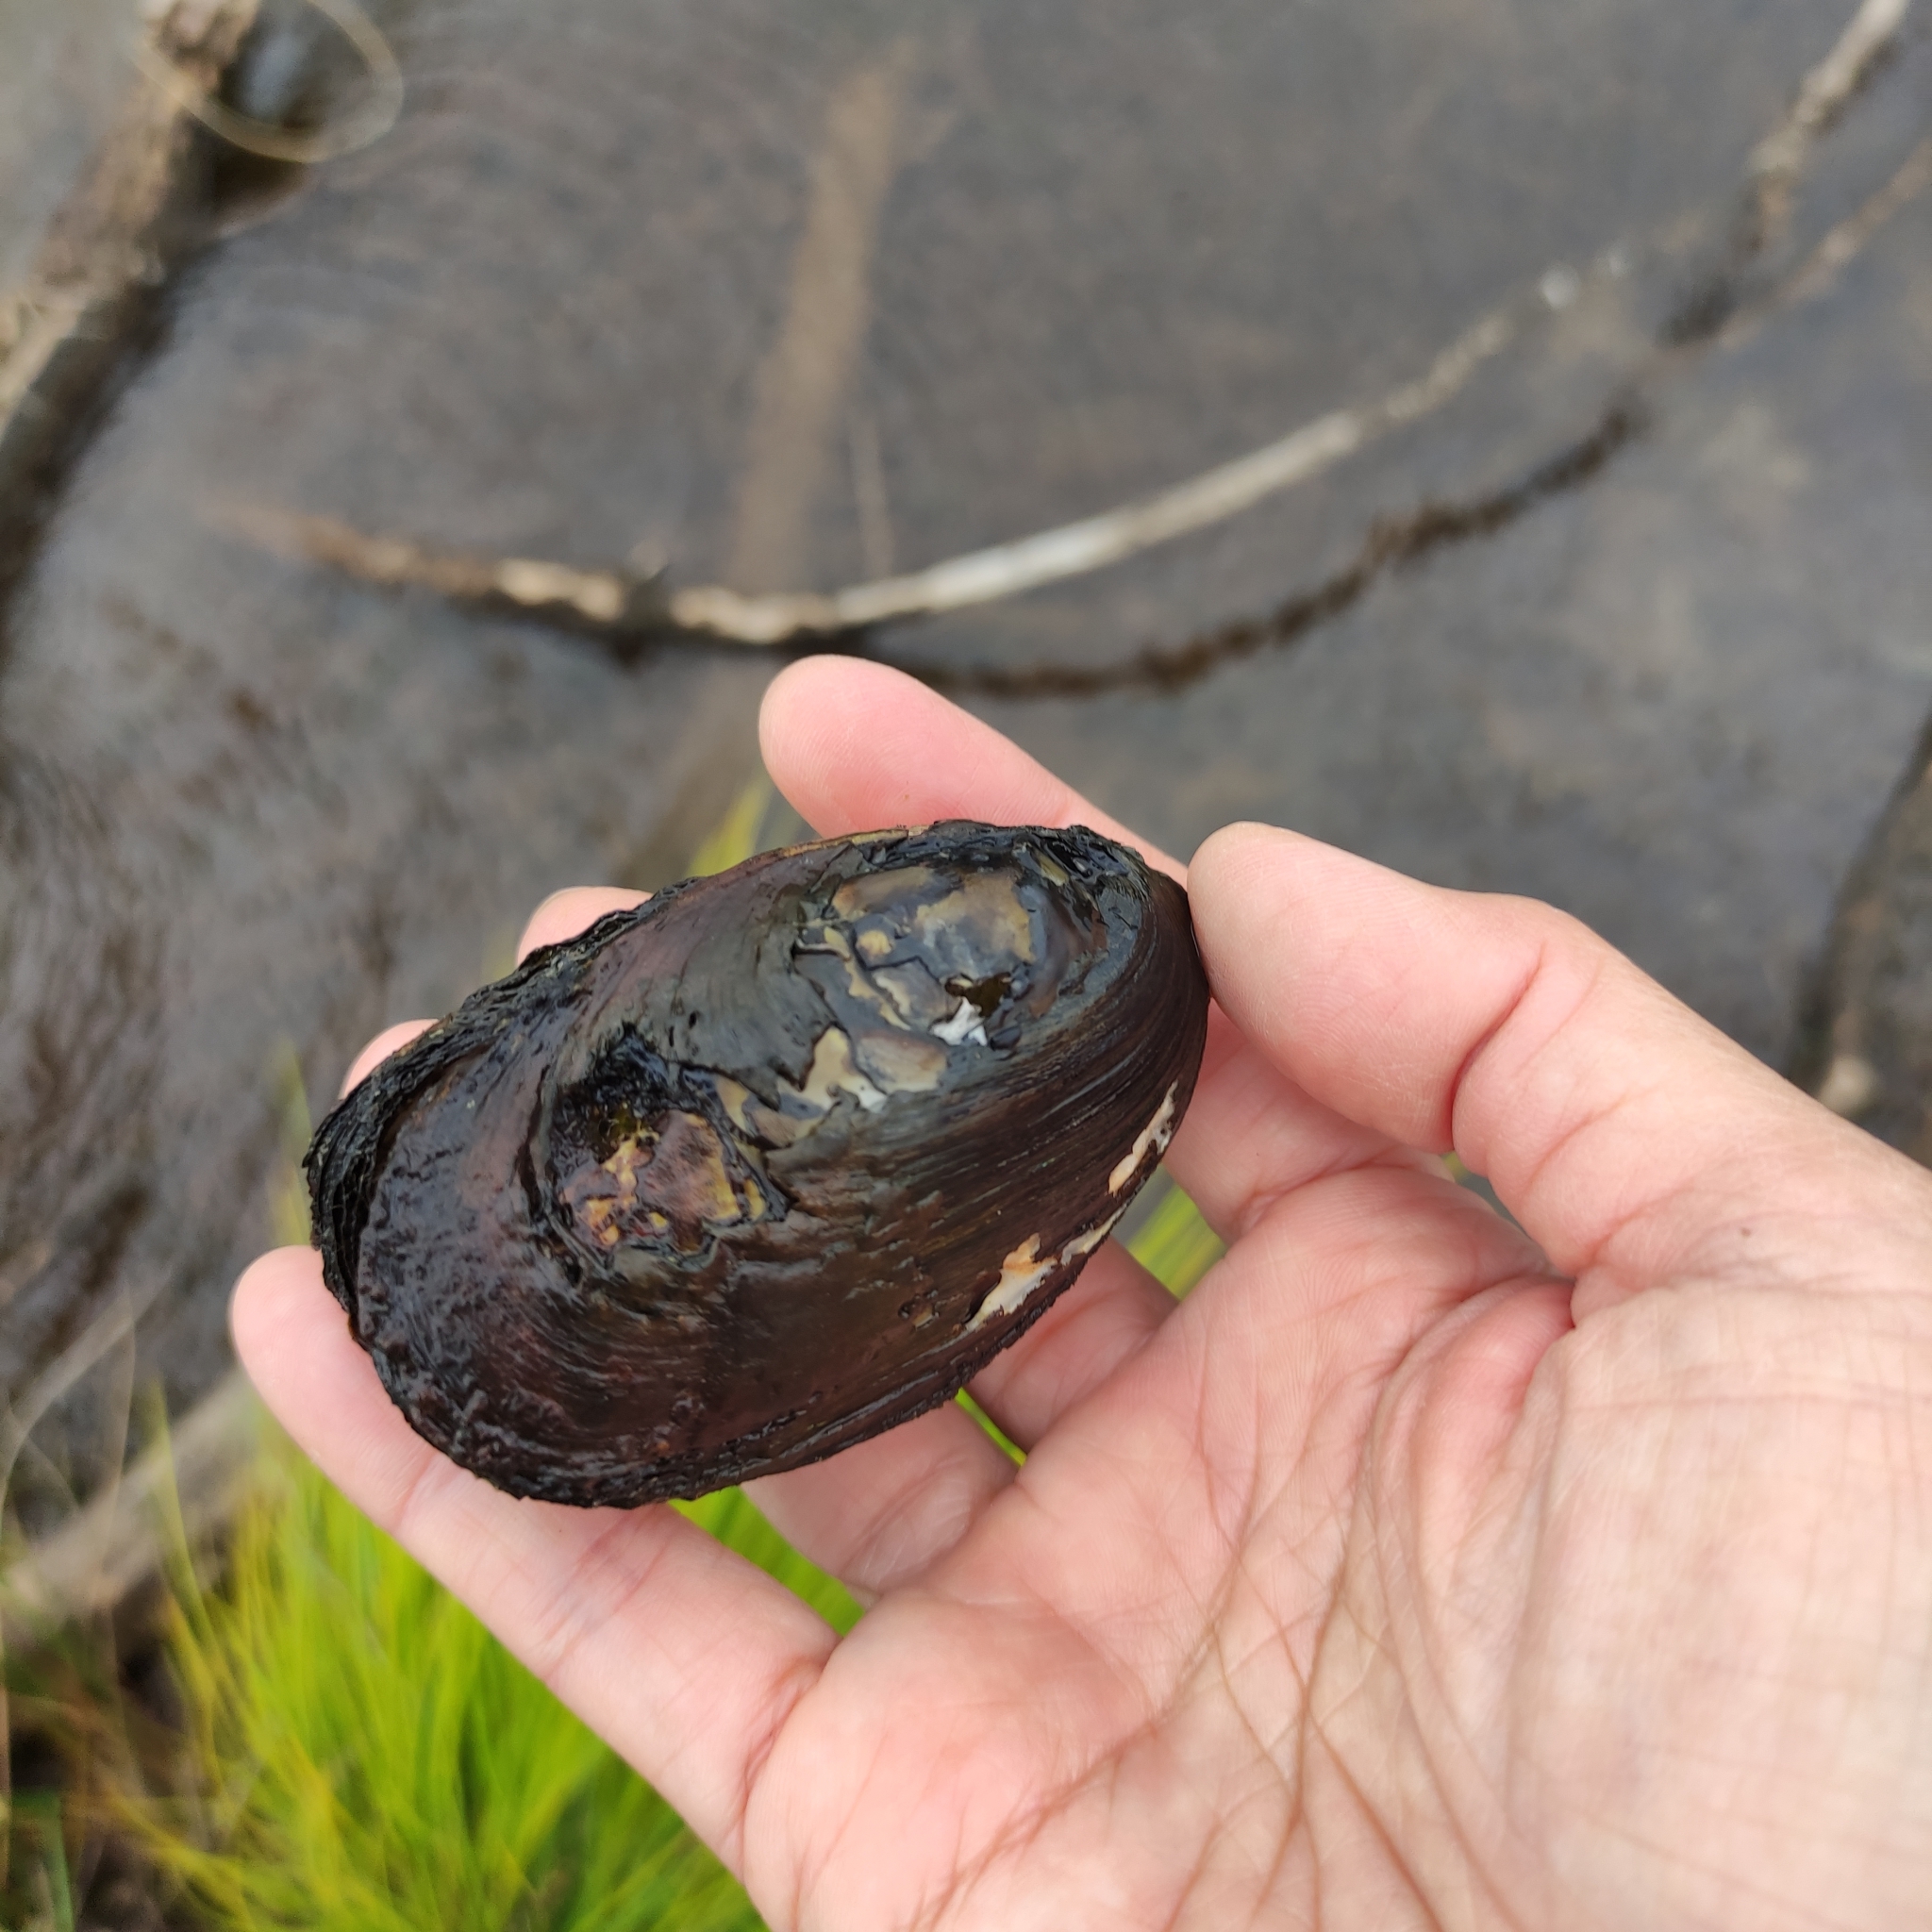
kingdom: Animalia
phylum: Mollusca
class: Bivalvia
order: Unionida
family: Hyriidae
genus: Echyridella
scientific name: Echyridella menziesii
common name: New zealand freshwater mussel
